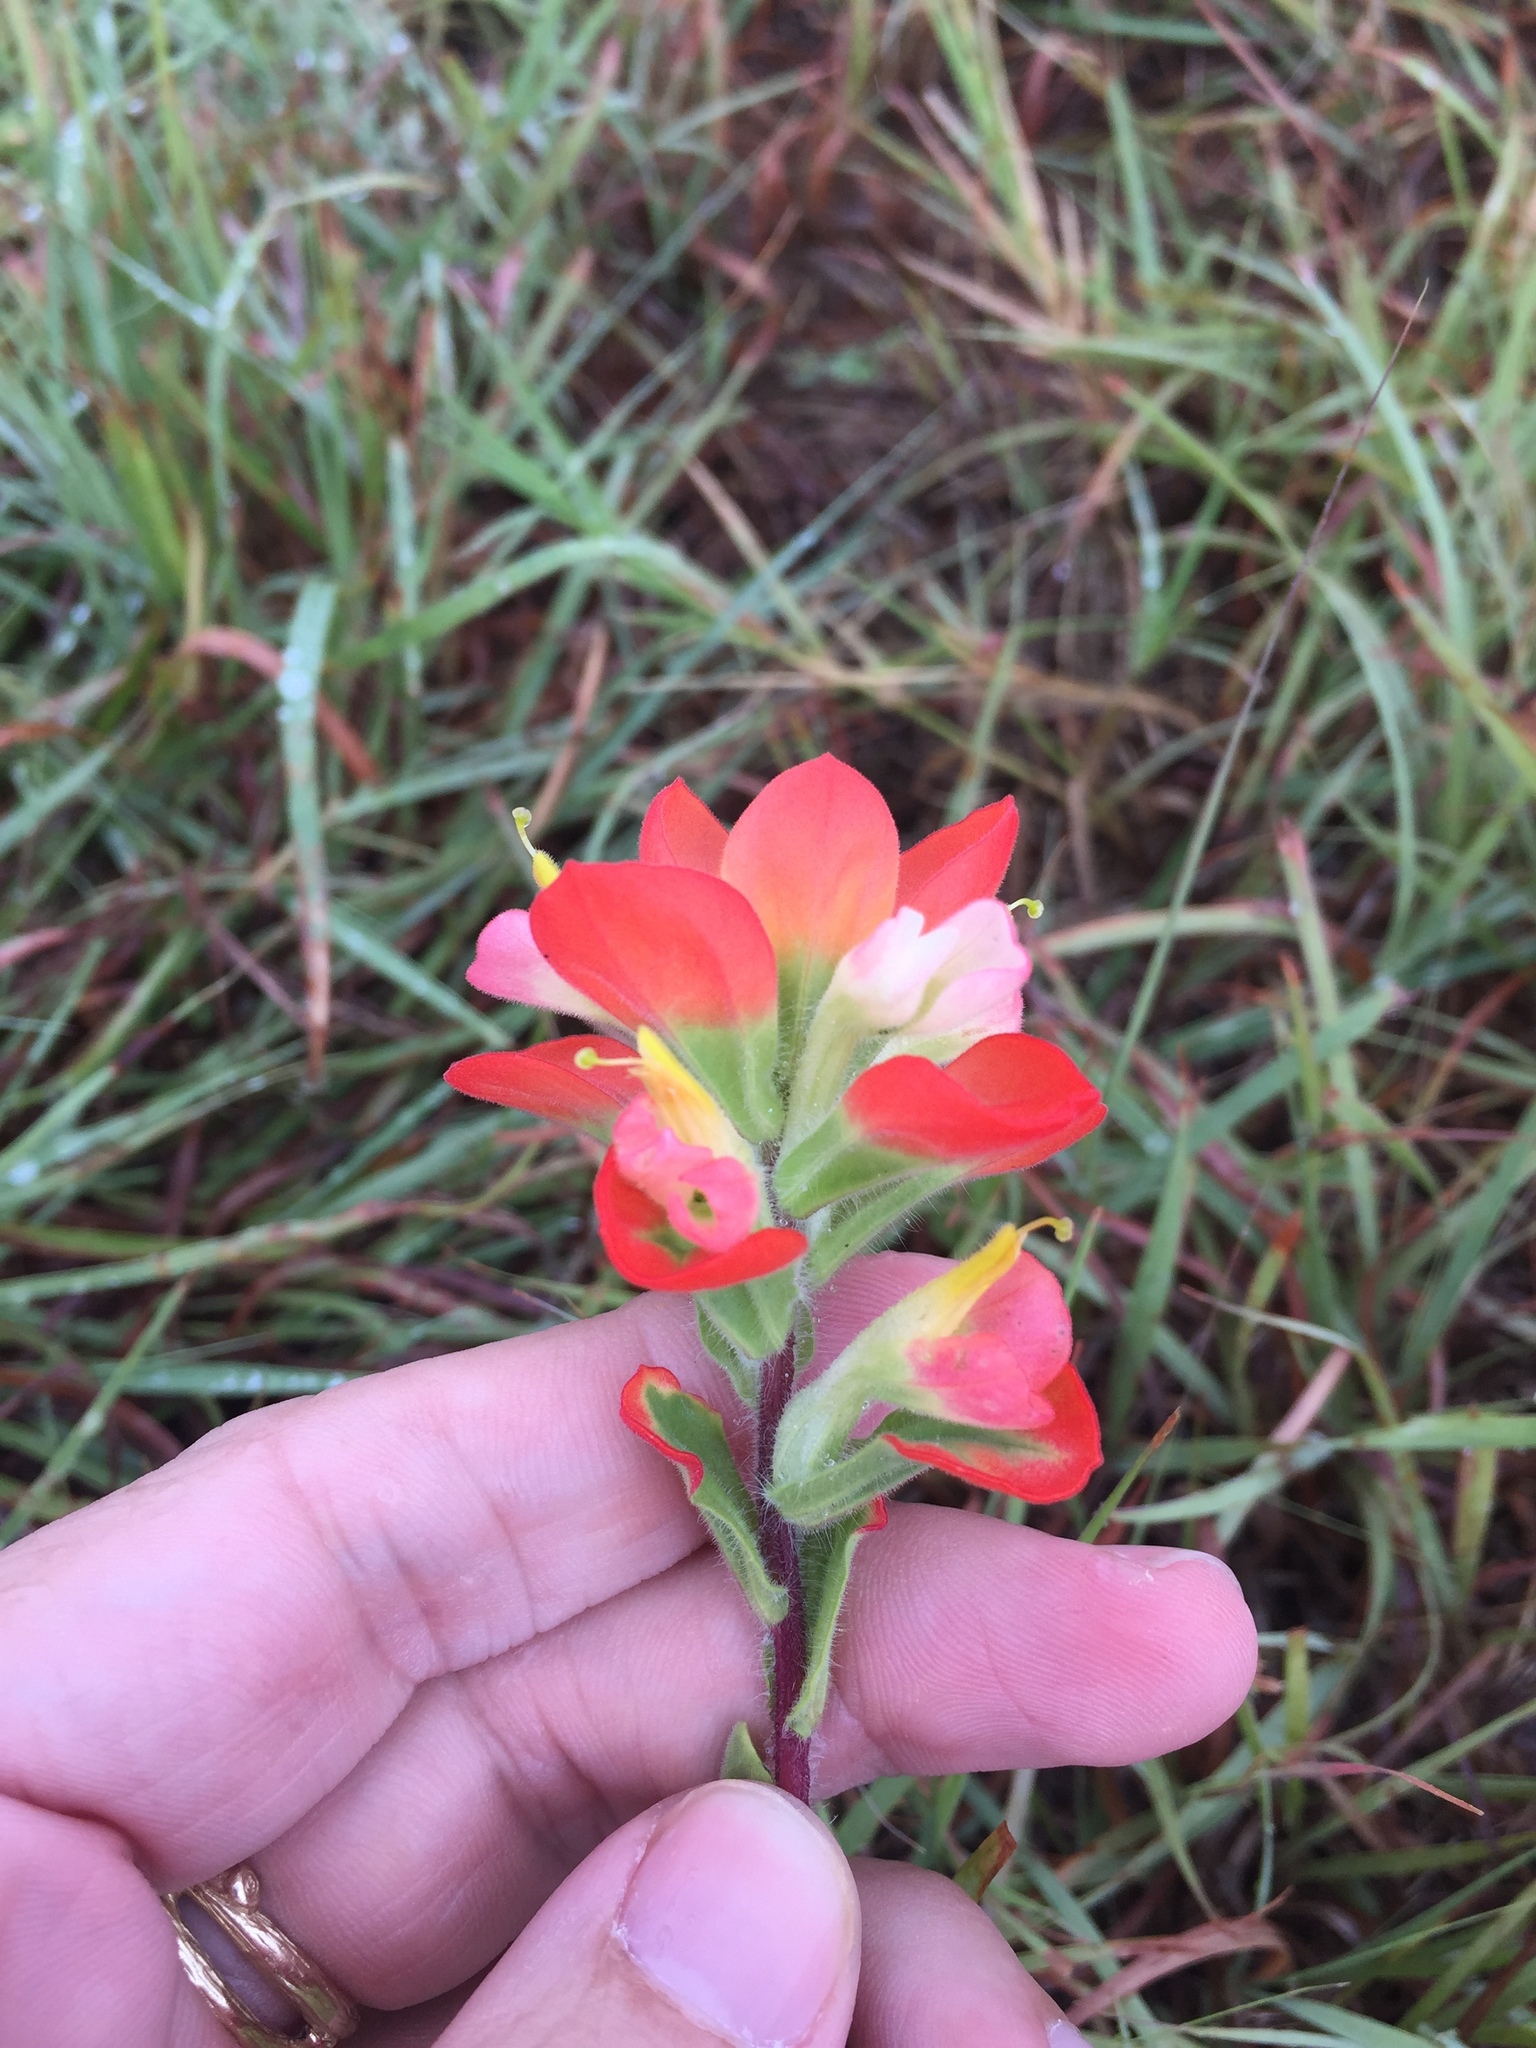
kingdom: Plantae
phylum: Tracheophyta
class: Magnoliopsida
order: Lamiales
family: Orobanchaceae
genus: Castilleja
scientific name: Castilleja indivisa
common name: Texas paintbrush
